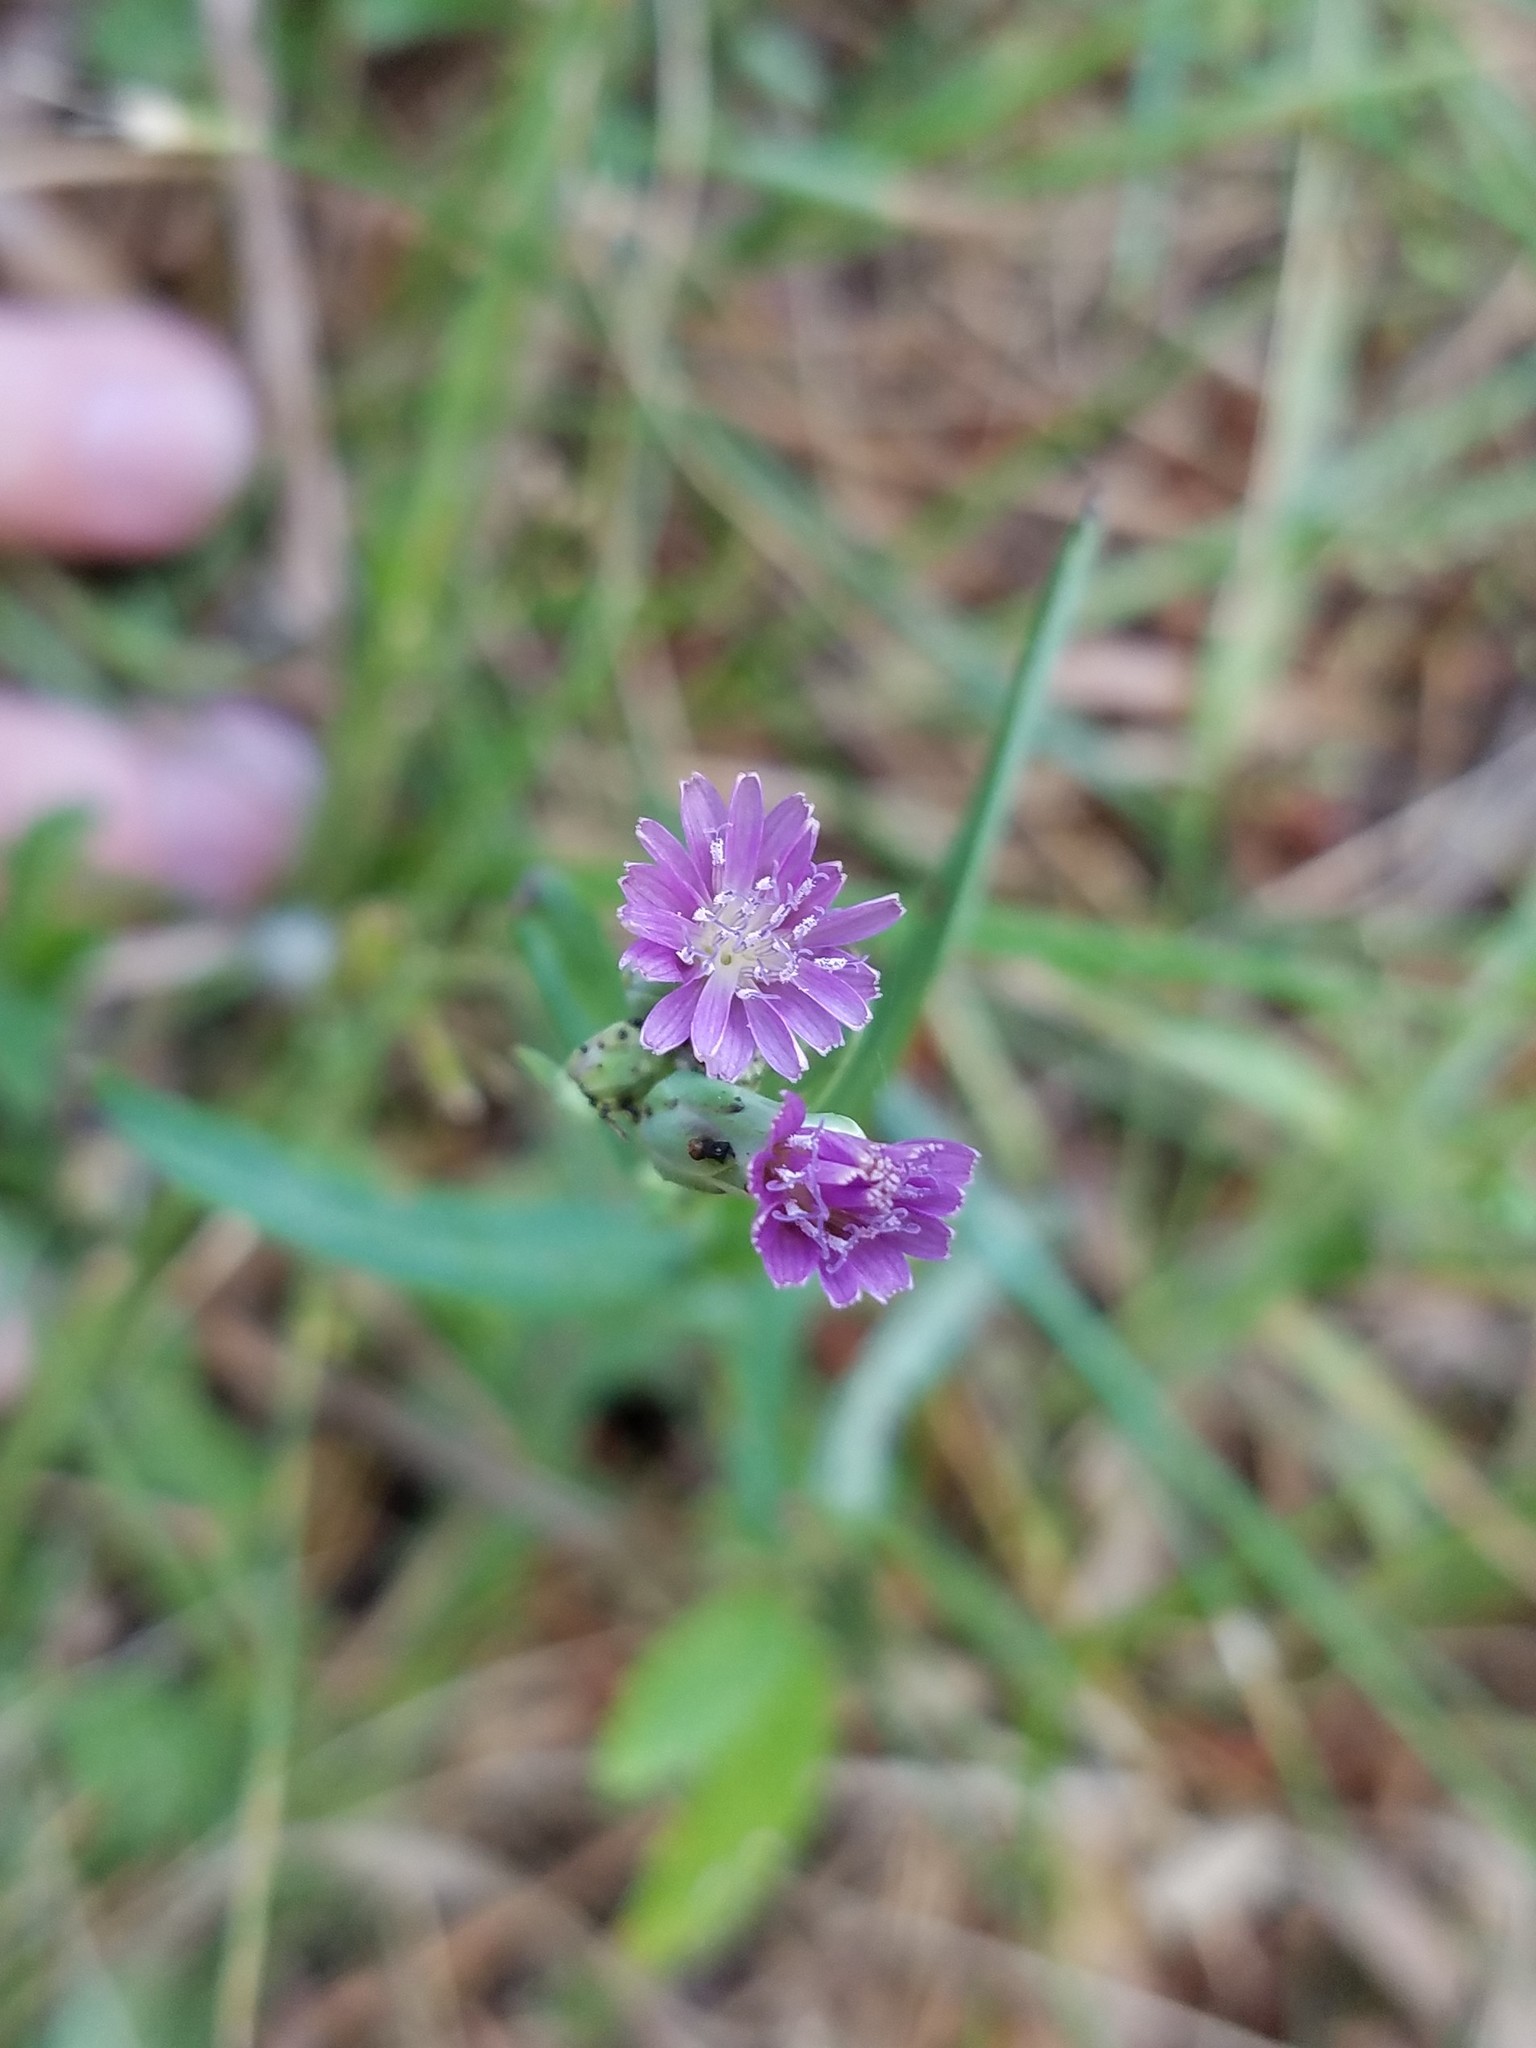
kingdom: Plantae
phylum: Tracheophyta
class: Magnoliopsida
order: Asterales
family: Asteraceae
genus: Lactuca
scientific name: Lactuca graminifolia
